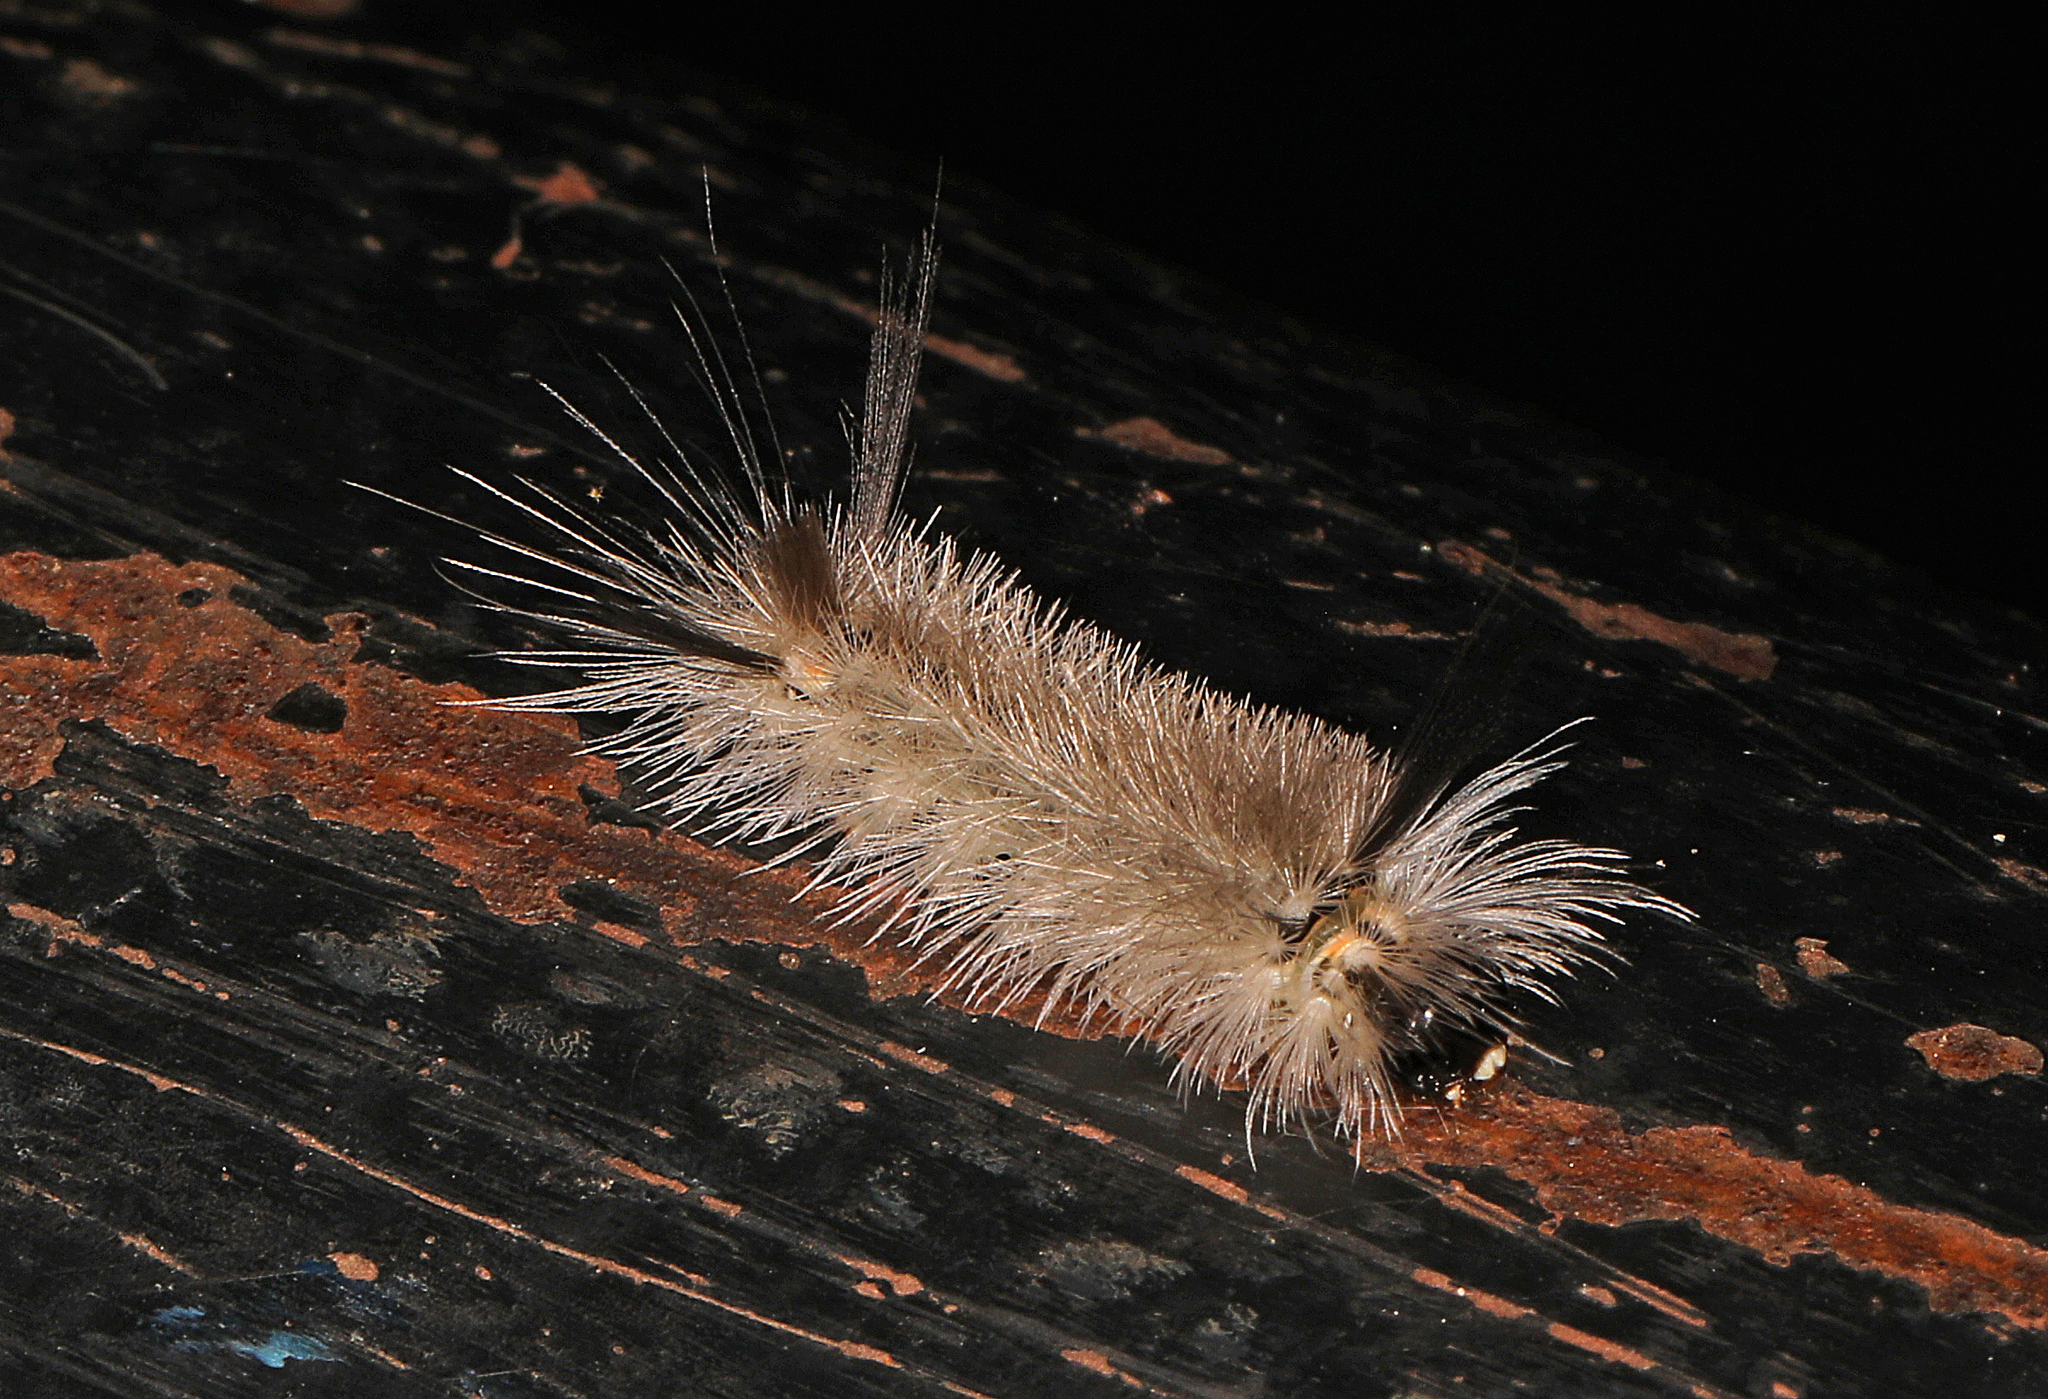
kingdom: Animalia
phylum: Arthropoda
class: Insecta
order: Lepidoptera
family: Erebidae
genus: Halysidota
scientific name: Halysidota tessellaris
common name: Banded tussock moth
